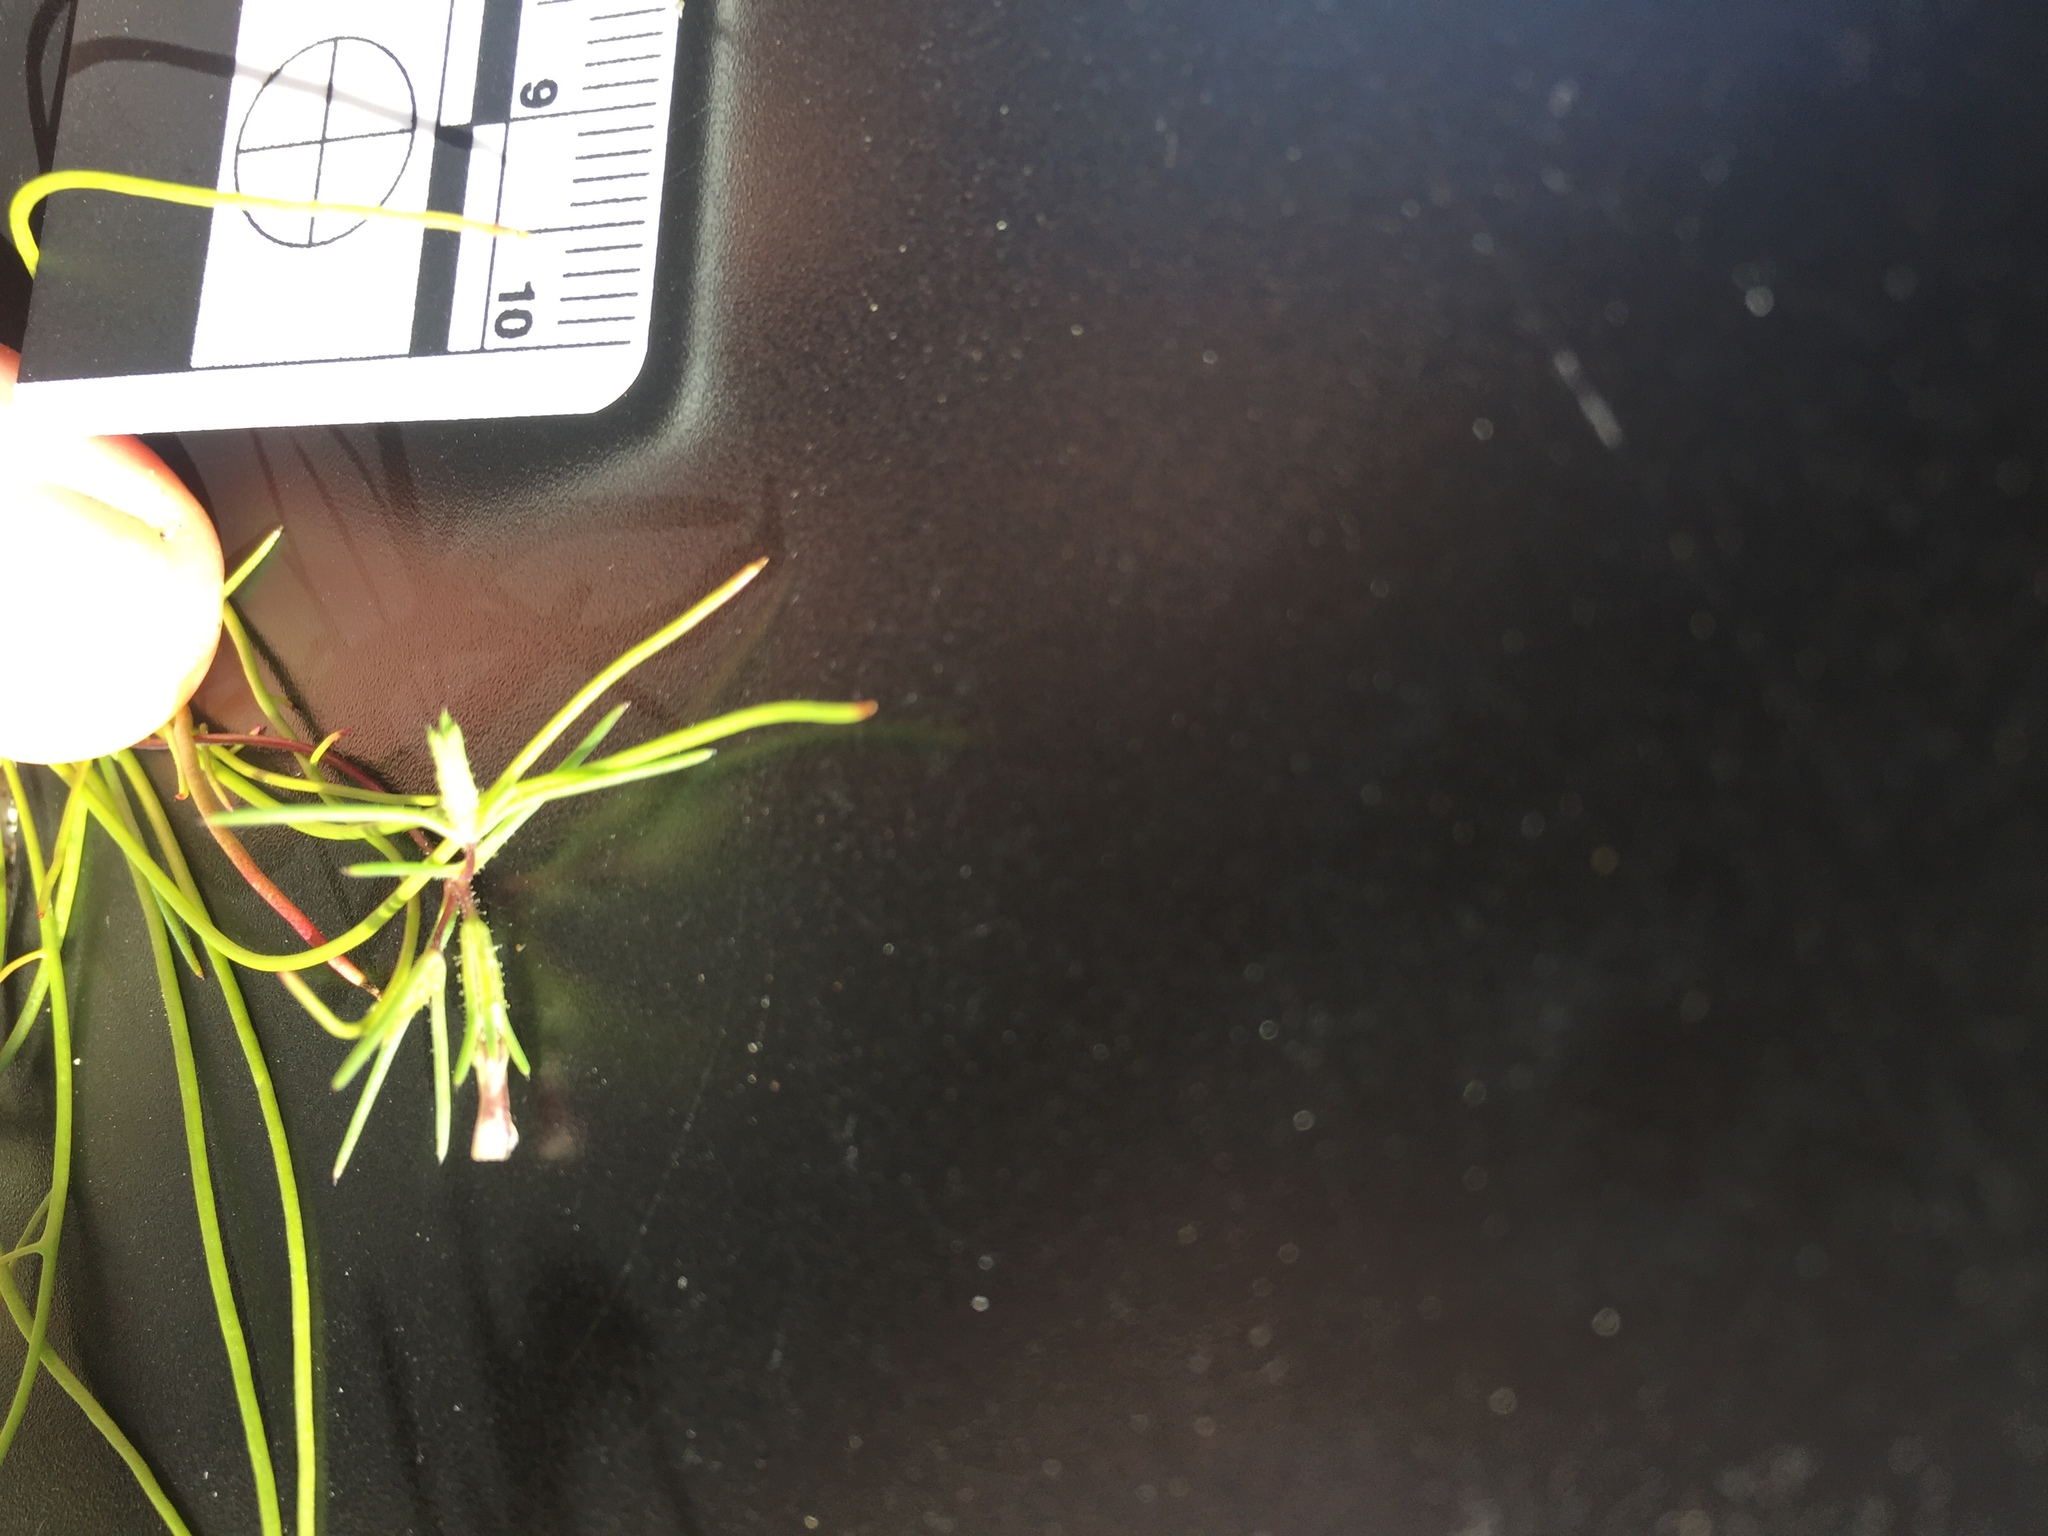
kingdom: Plantae
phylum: Tracheophyta
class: Magnoliopsida
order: Ericales
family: Polemoniaceae
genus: Linanthus
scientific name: Linanthus jonesii
